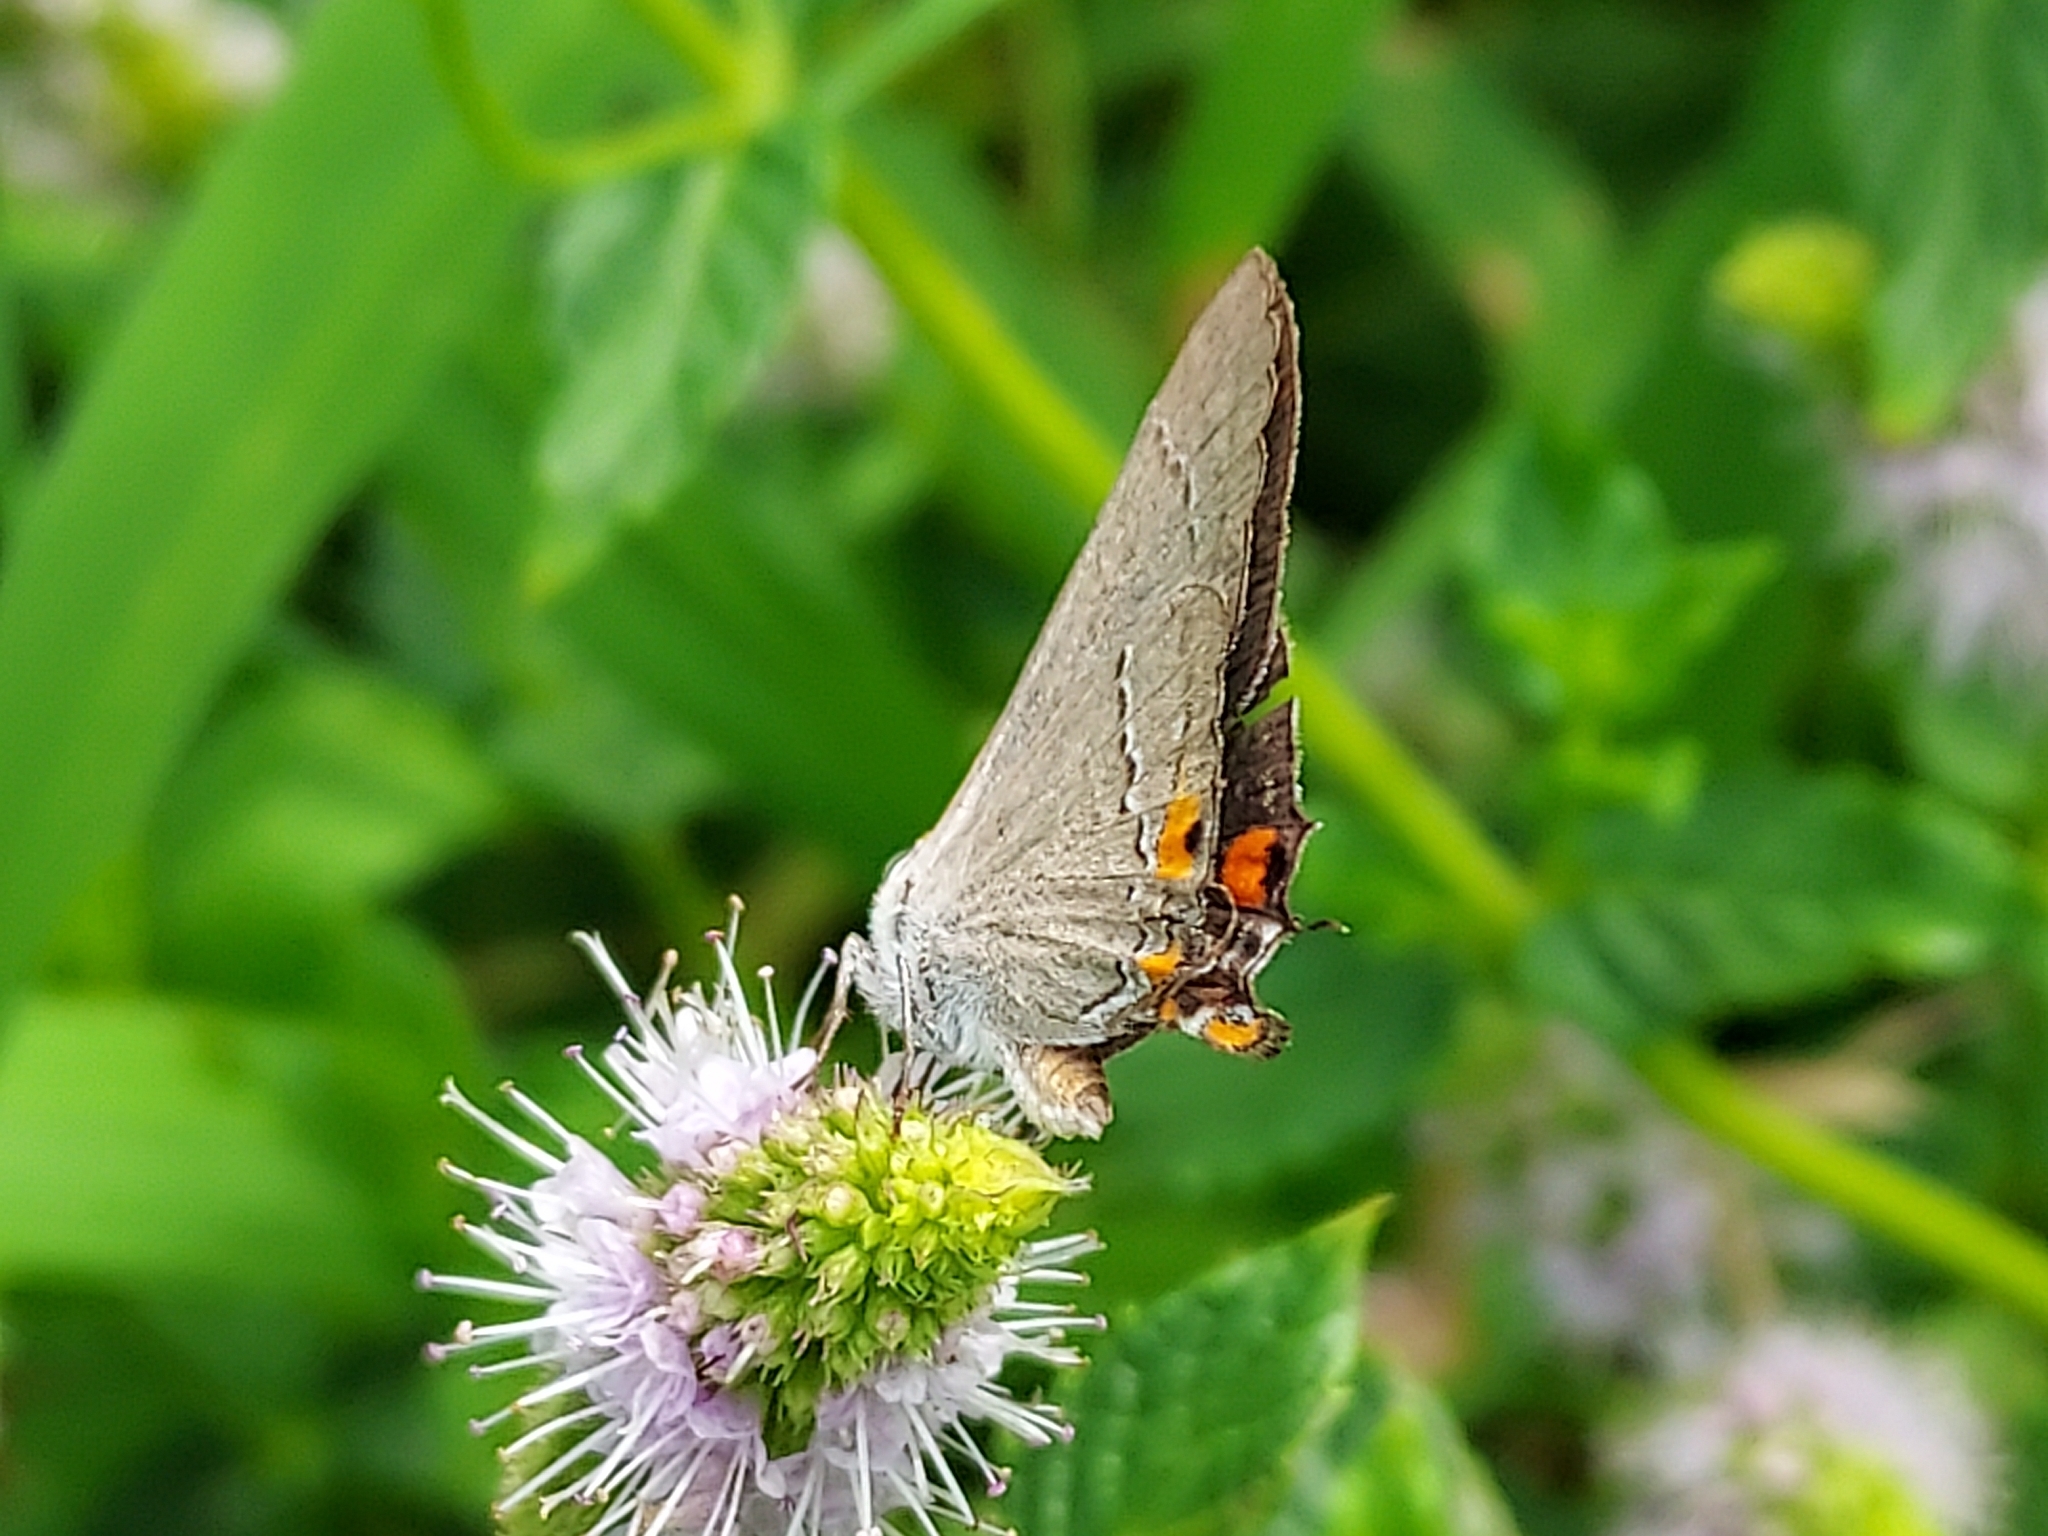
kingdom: Animalia
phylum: Arthropoda
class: Insecta
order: Lepidoptera
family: Lycaenidae
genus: Strymon
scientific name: Strymon melinus
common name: Gray hairstreak
